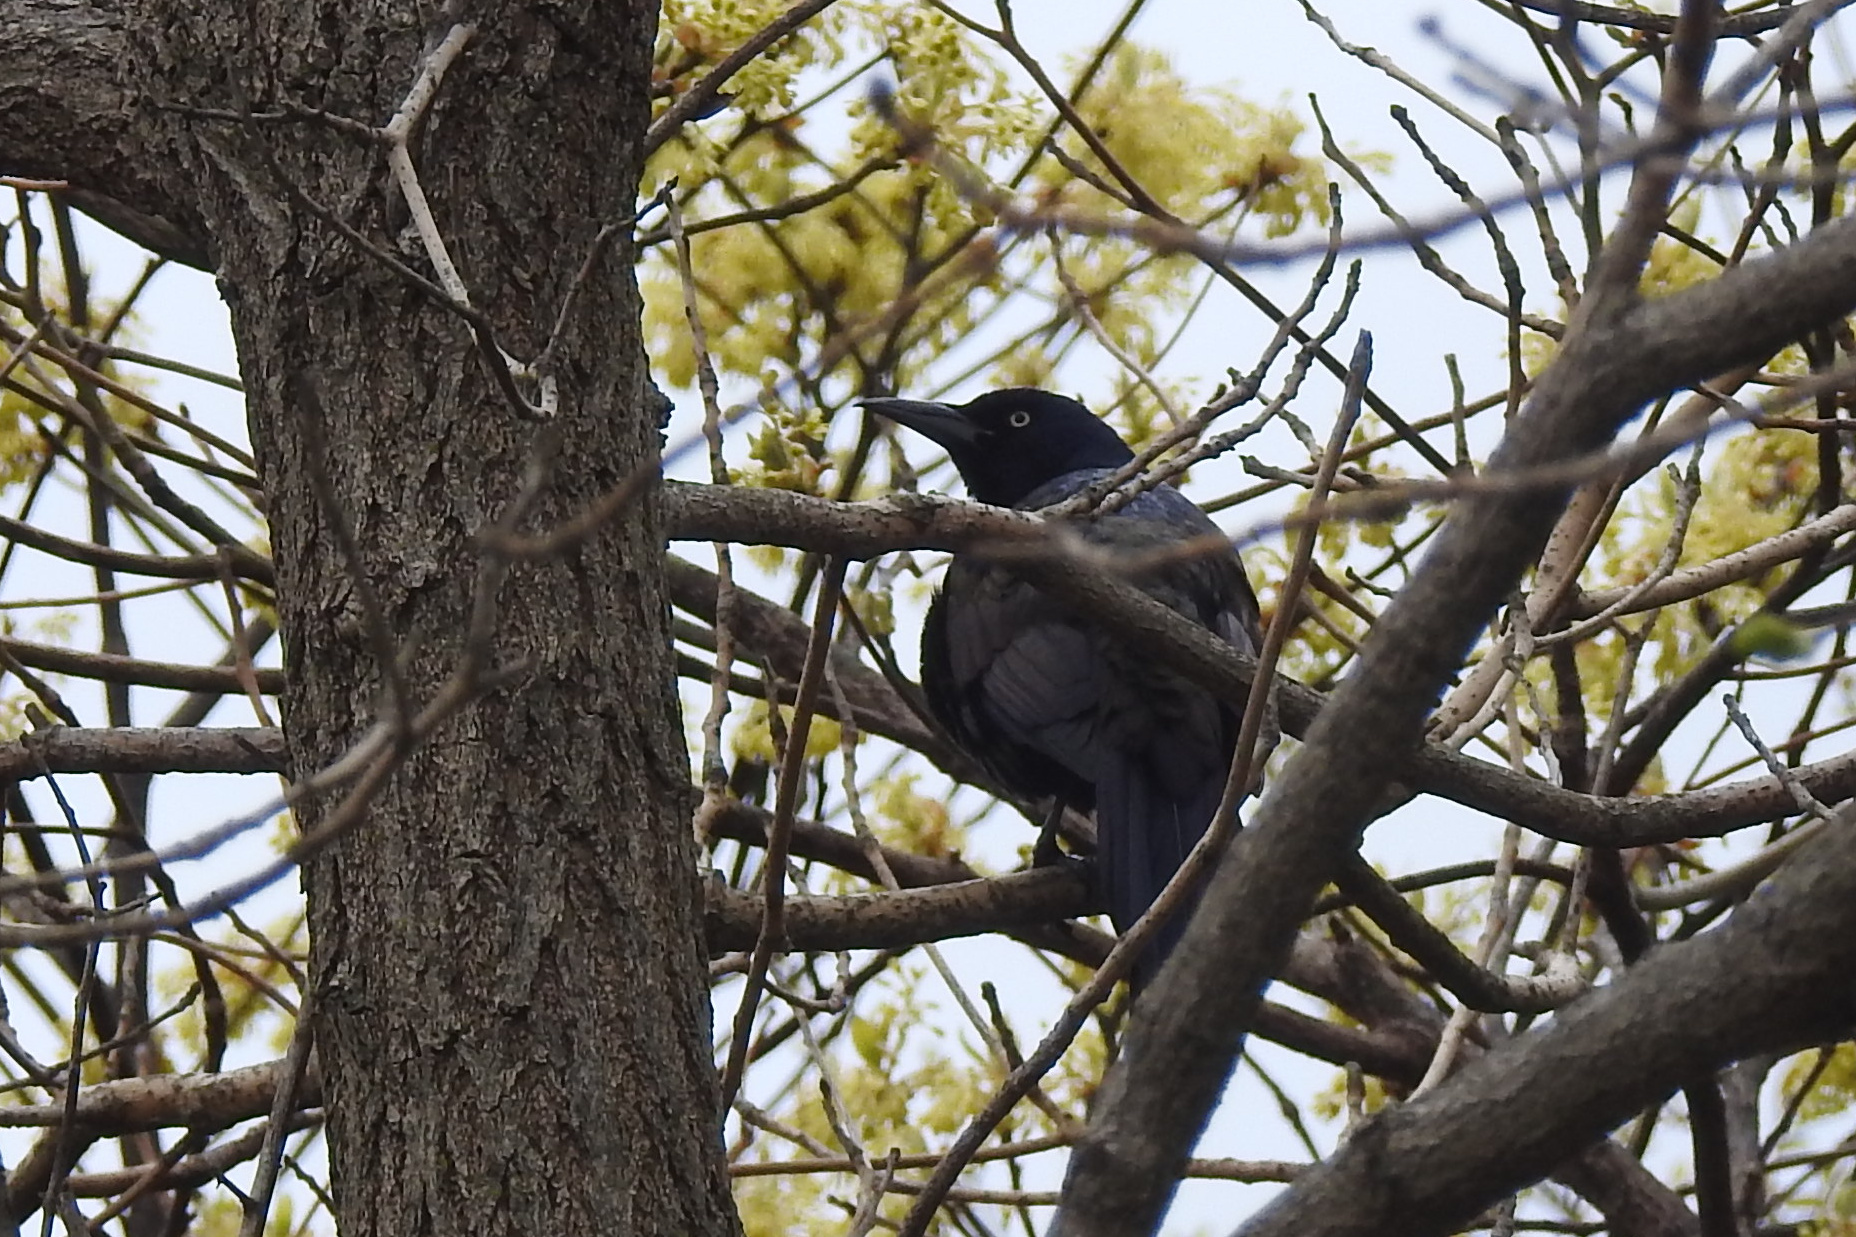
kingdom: Animalia
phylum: Chordata
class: Aves
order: Passeriformes
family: Icteridae
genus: Quiscalus
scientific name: Quiscalus quiscula
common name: Common grackle
